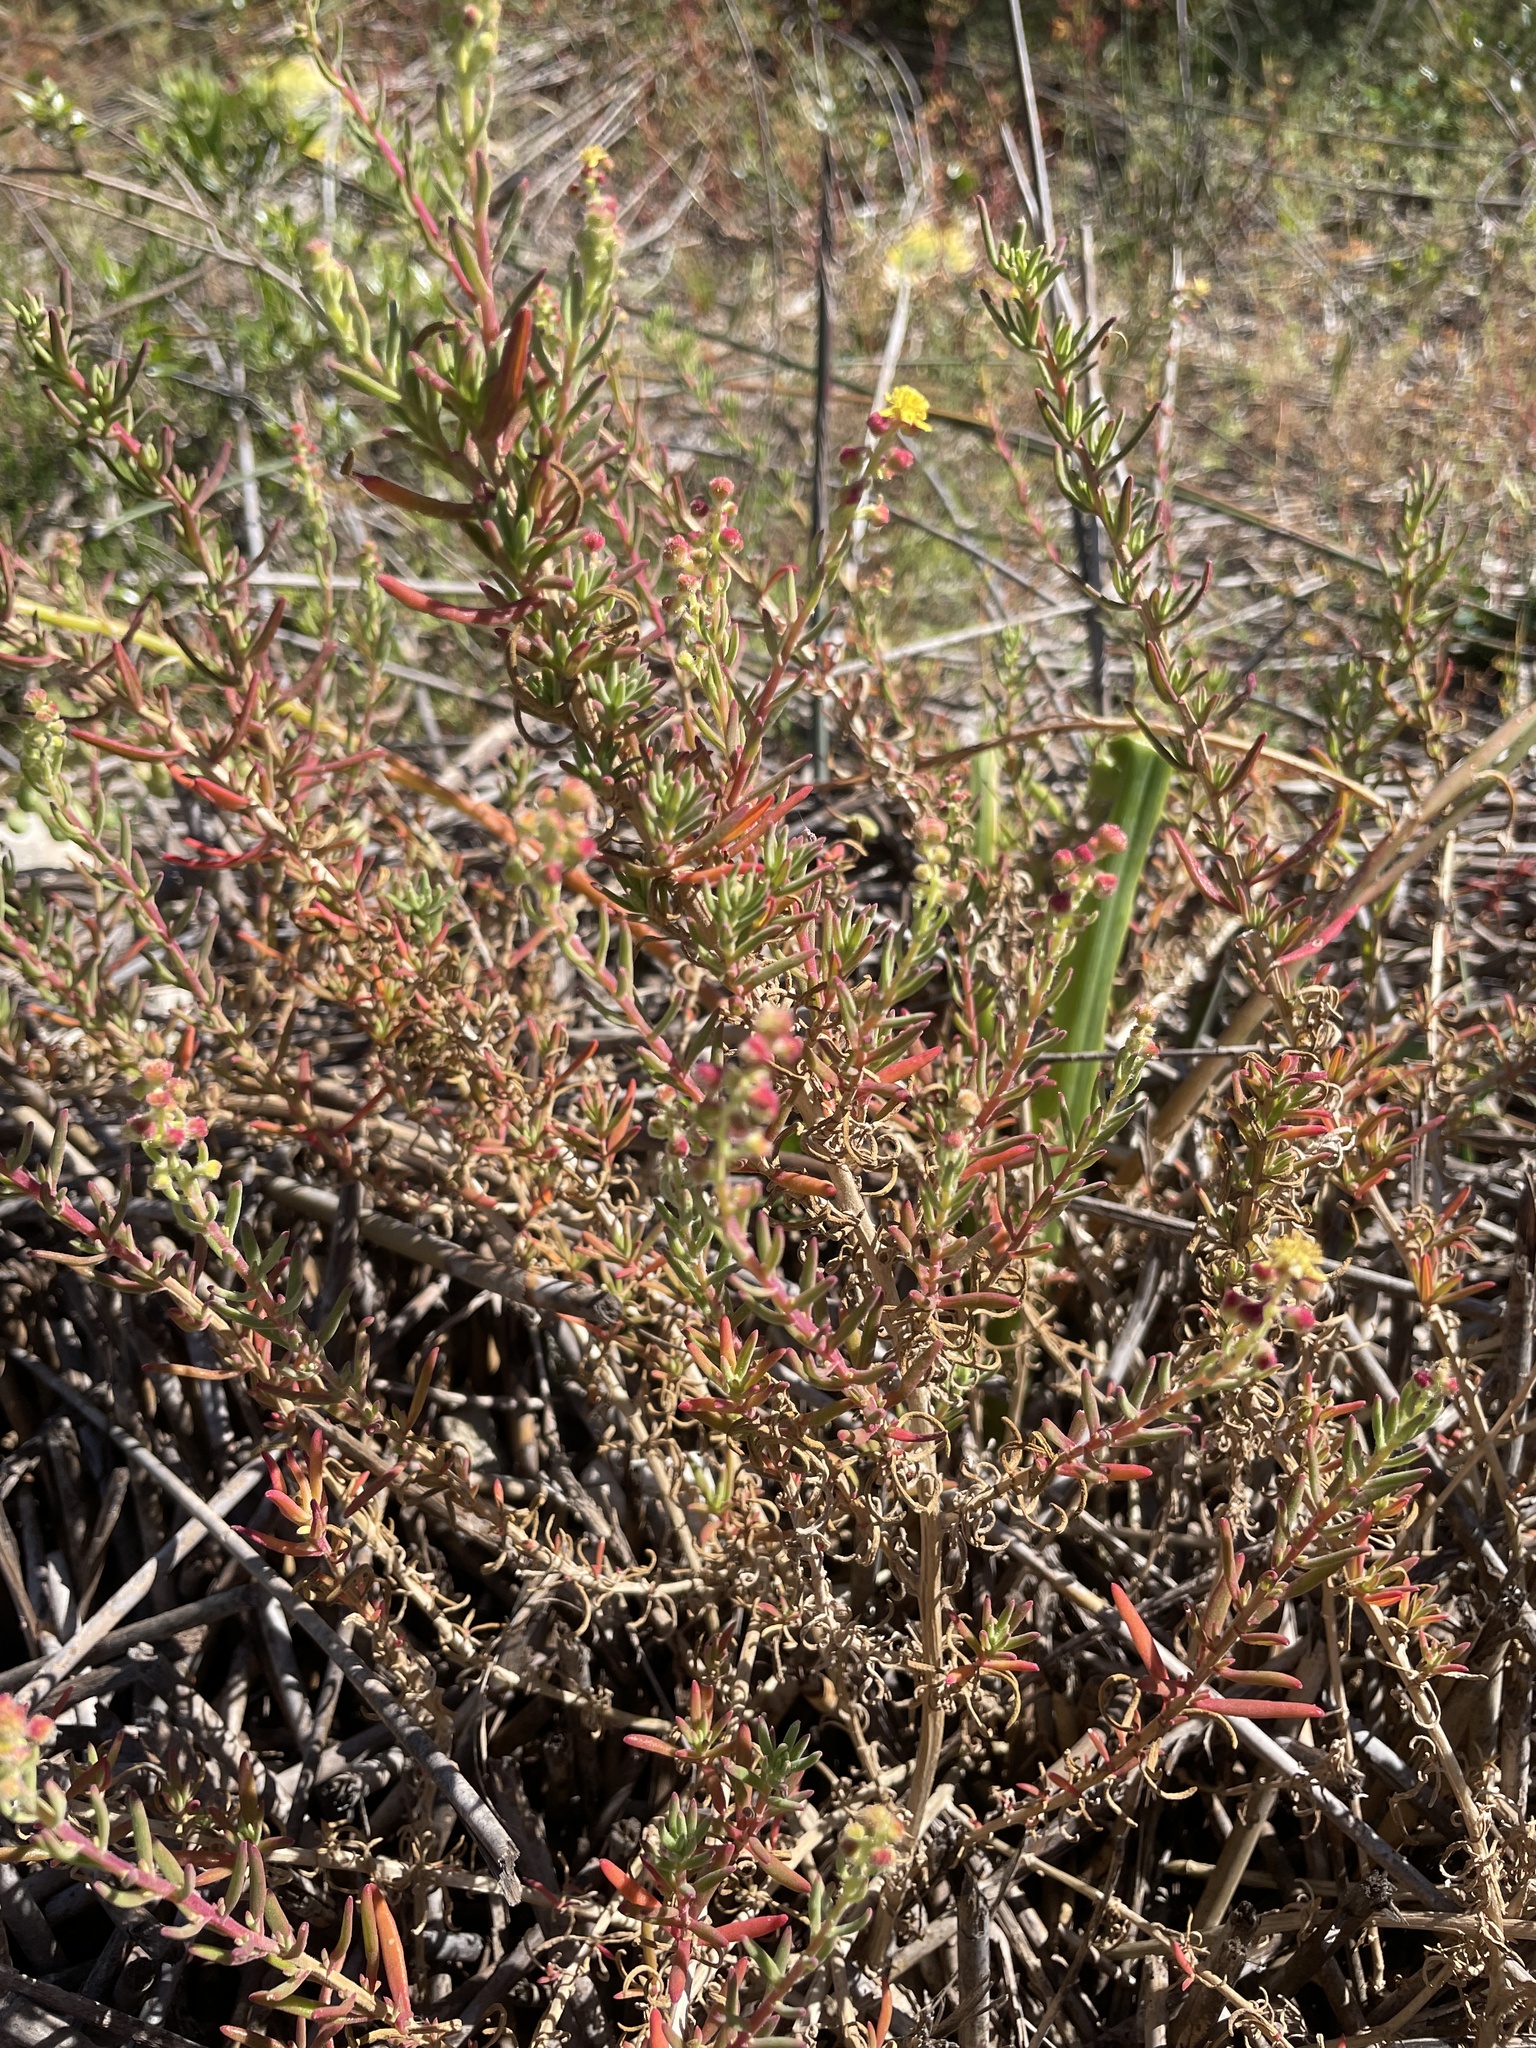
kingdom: Plantae
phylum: Tracheophyta
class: Magnoliopsida
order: Caryophyllales
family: Aizoaceae
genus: Tetragonia
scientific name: Tetragonia fruticosa
